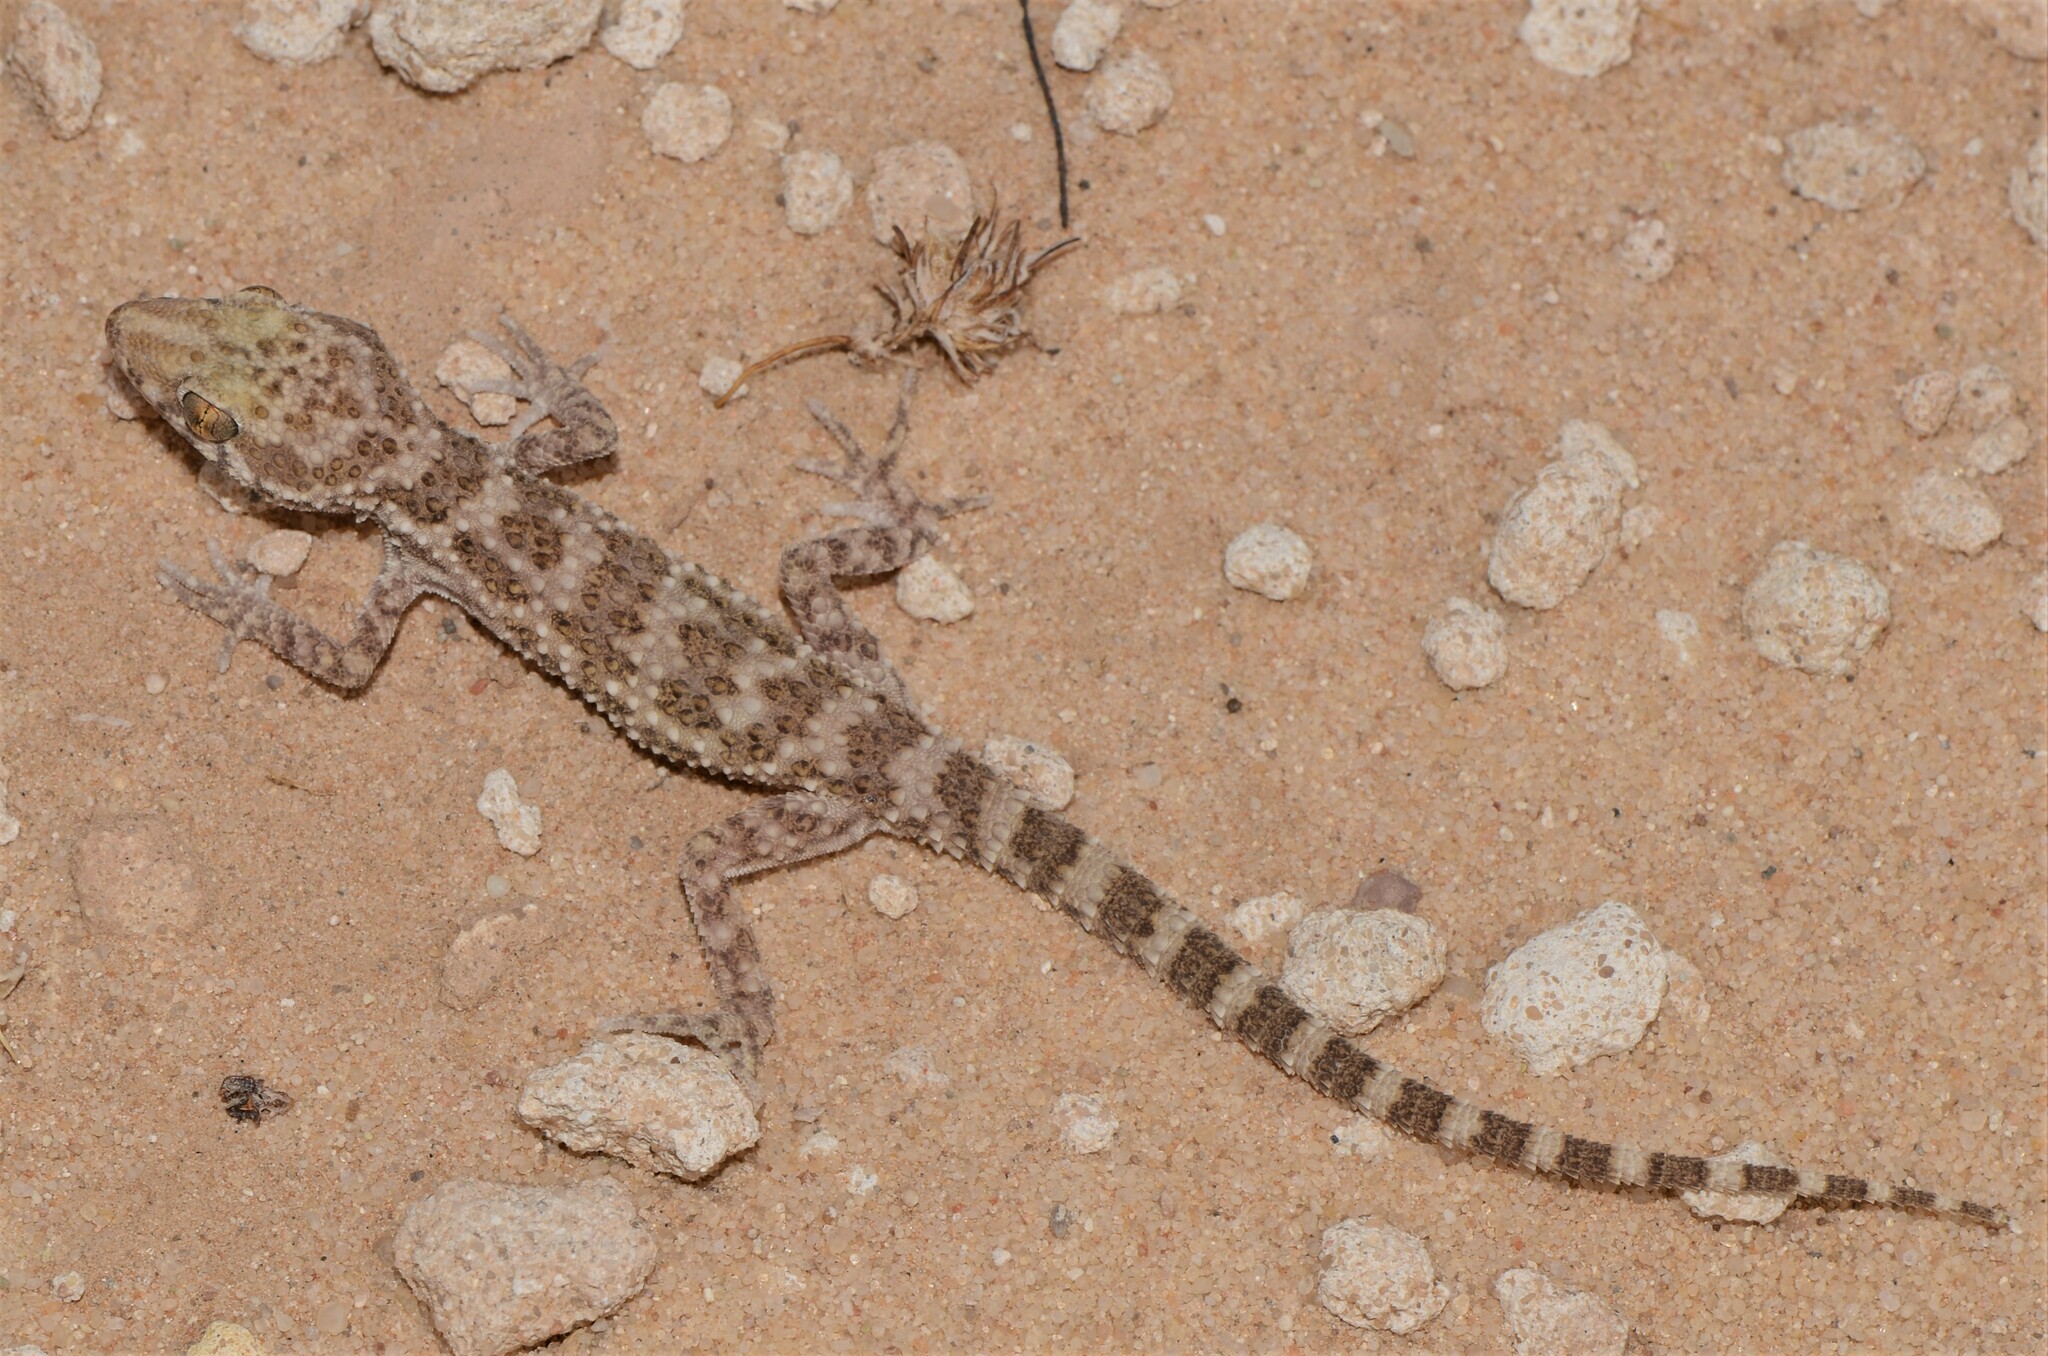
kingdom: Animalia
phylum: Chordata
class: Squamata
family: Gekkonidae
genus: Bunopus
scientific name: Bunopus tuberculatus
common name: Southern tuberculated gecko
